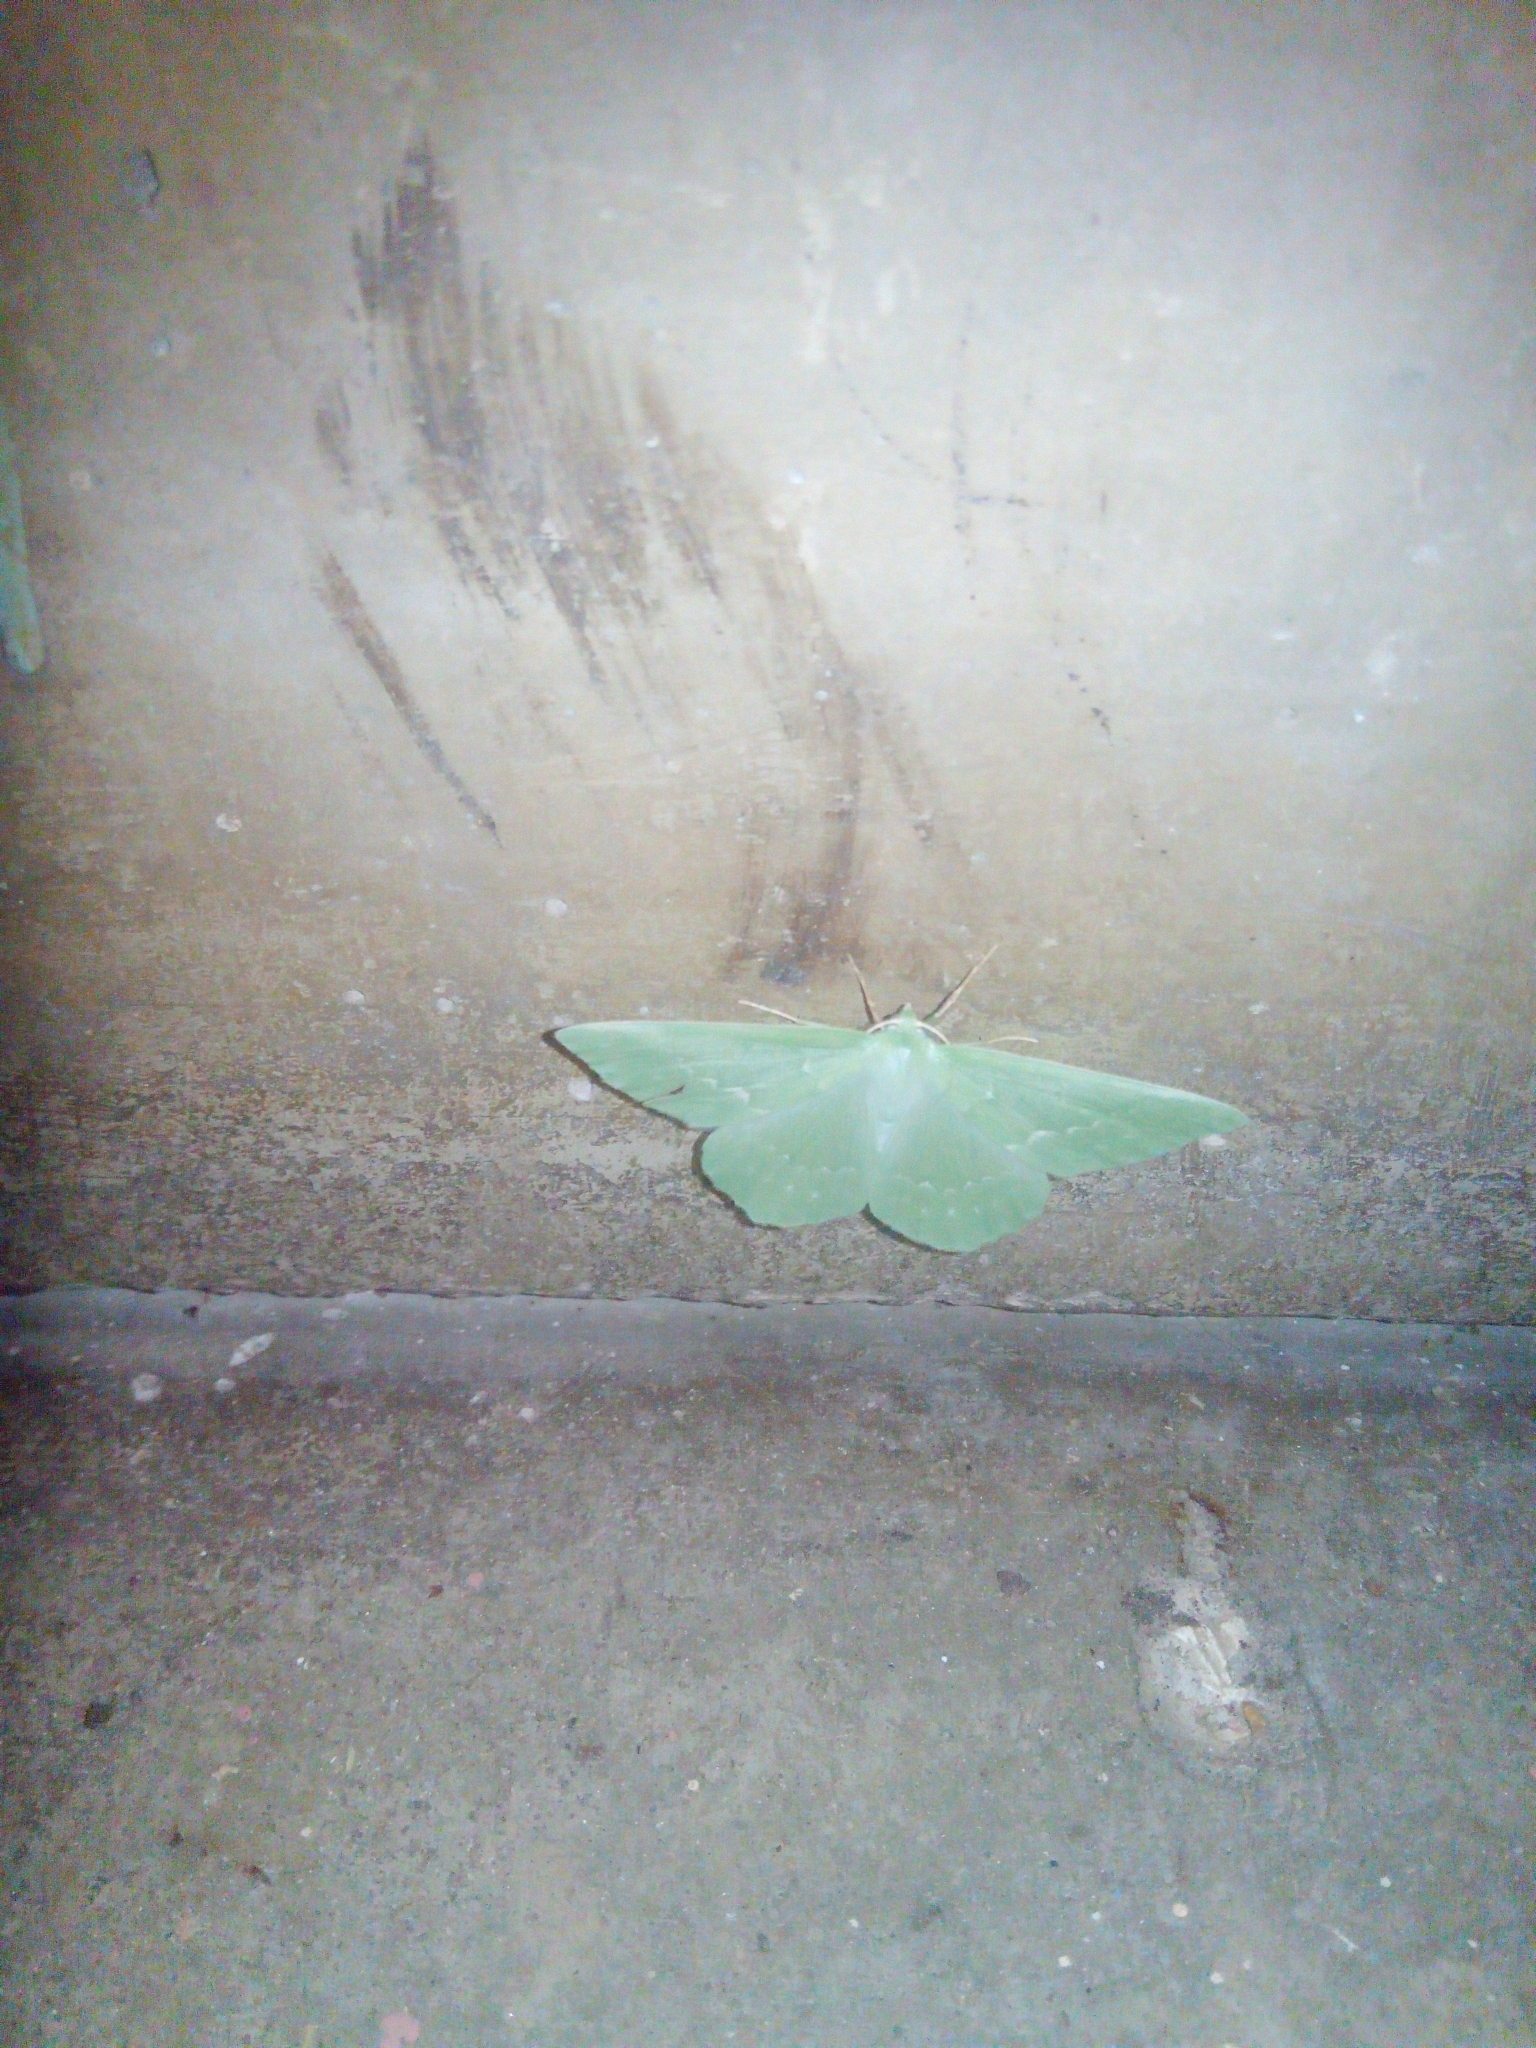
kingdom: Animalia
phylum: Arthropoda
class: Insecta
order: Lepidoptera
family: Geometridae
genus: Geometra
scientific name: Geometra papilionaria
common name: Large emerald
